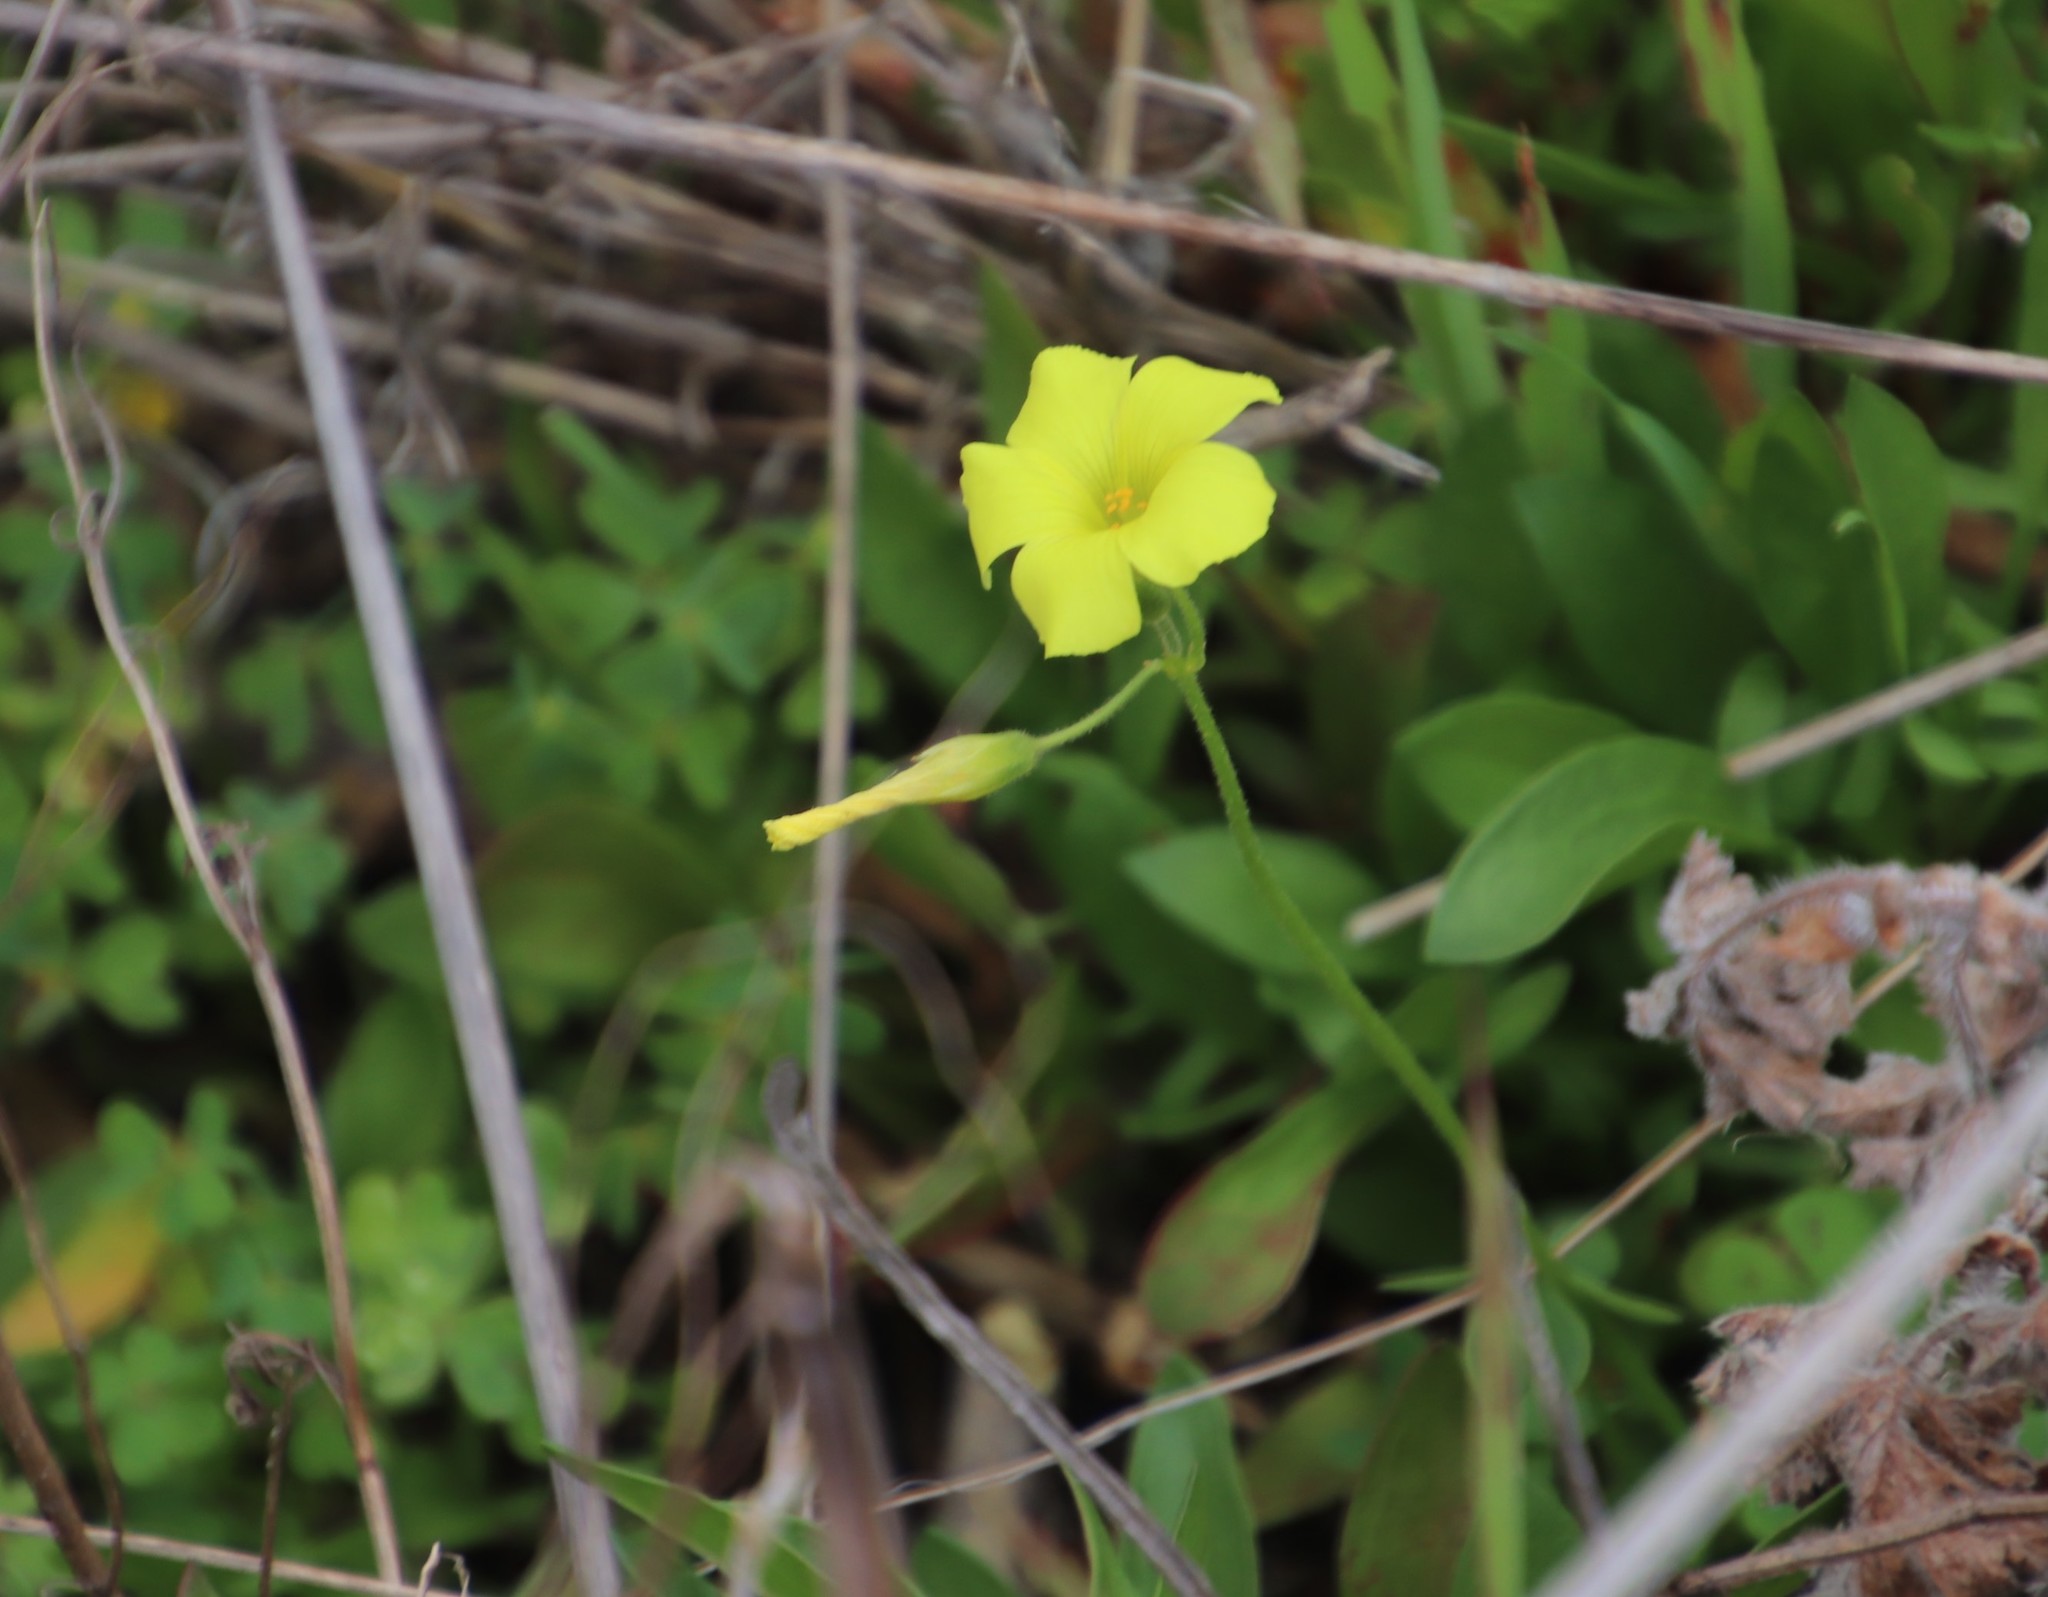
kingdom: Plantae
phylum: Tracheophyta
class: Magnoliopsida
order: Oxalidales
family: Oxalidaceae
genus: Oxalis
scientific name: Oxalis pes-caprae
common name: Bermuda-buttercup
